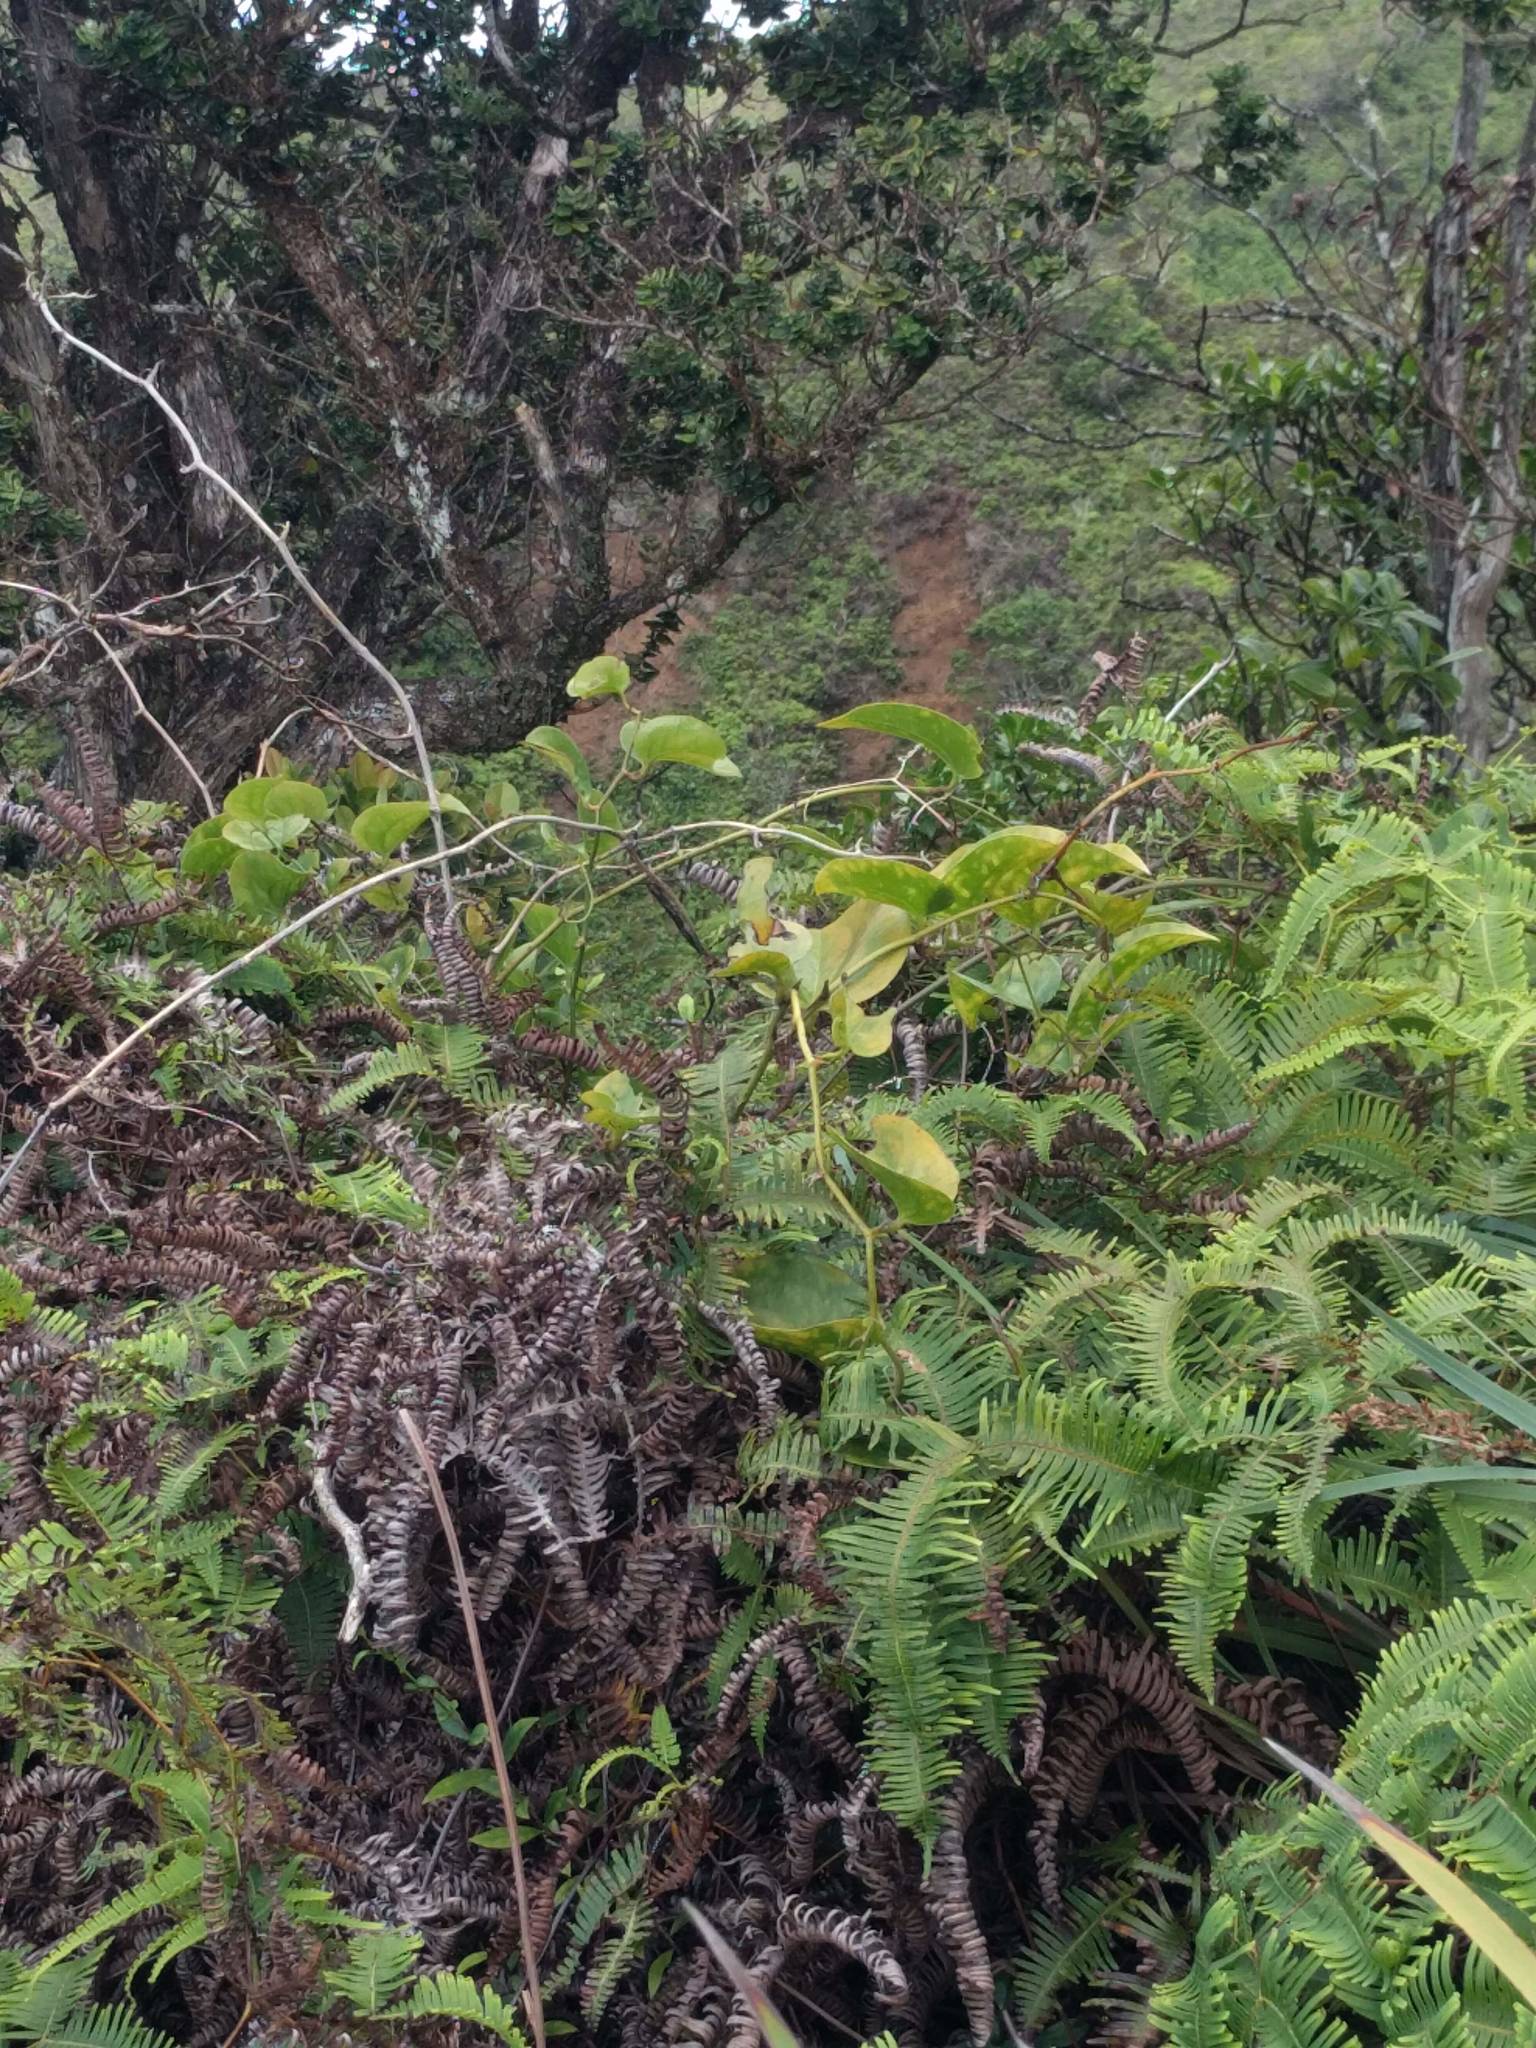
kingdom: Plantae
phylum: Tracheophyta
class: Liliopsida
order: Liliales
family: Smilacaceae
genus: Smilax
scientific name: Smilax melastomifolia
